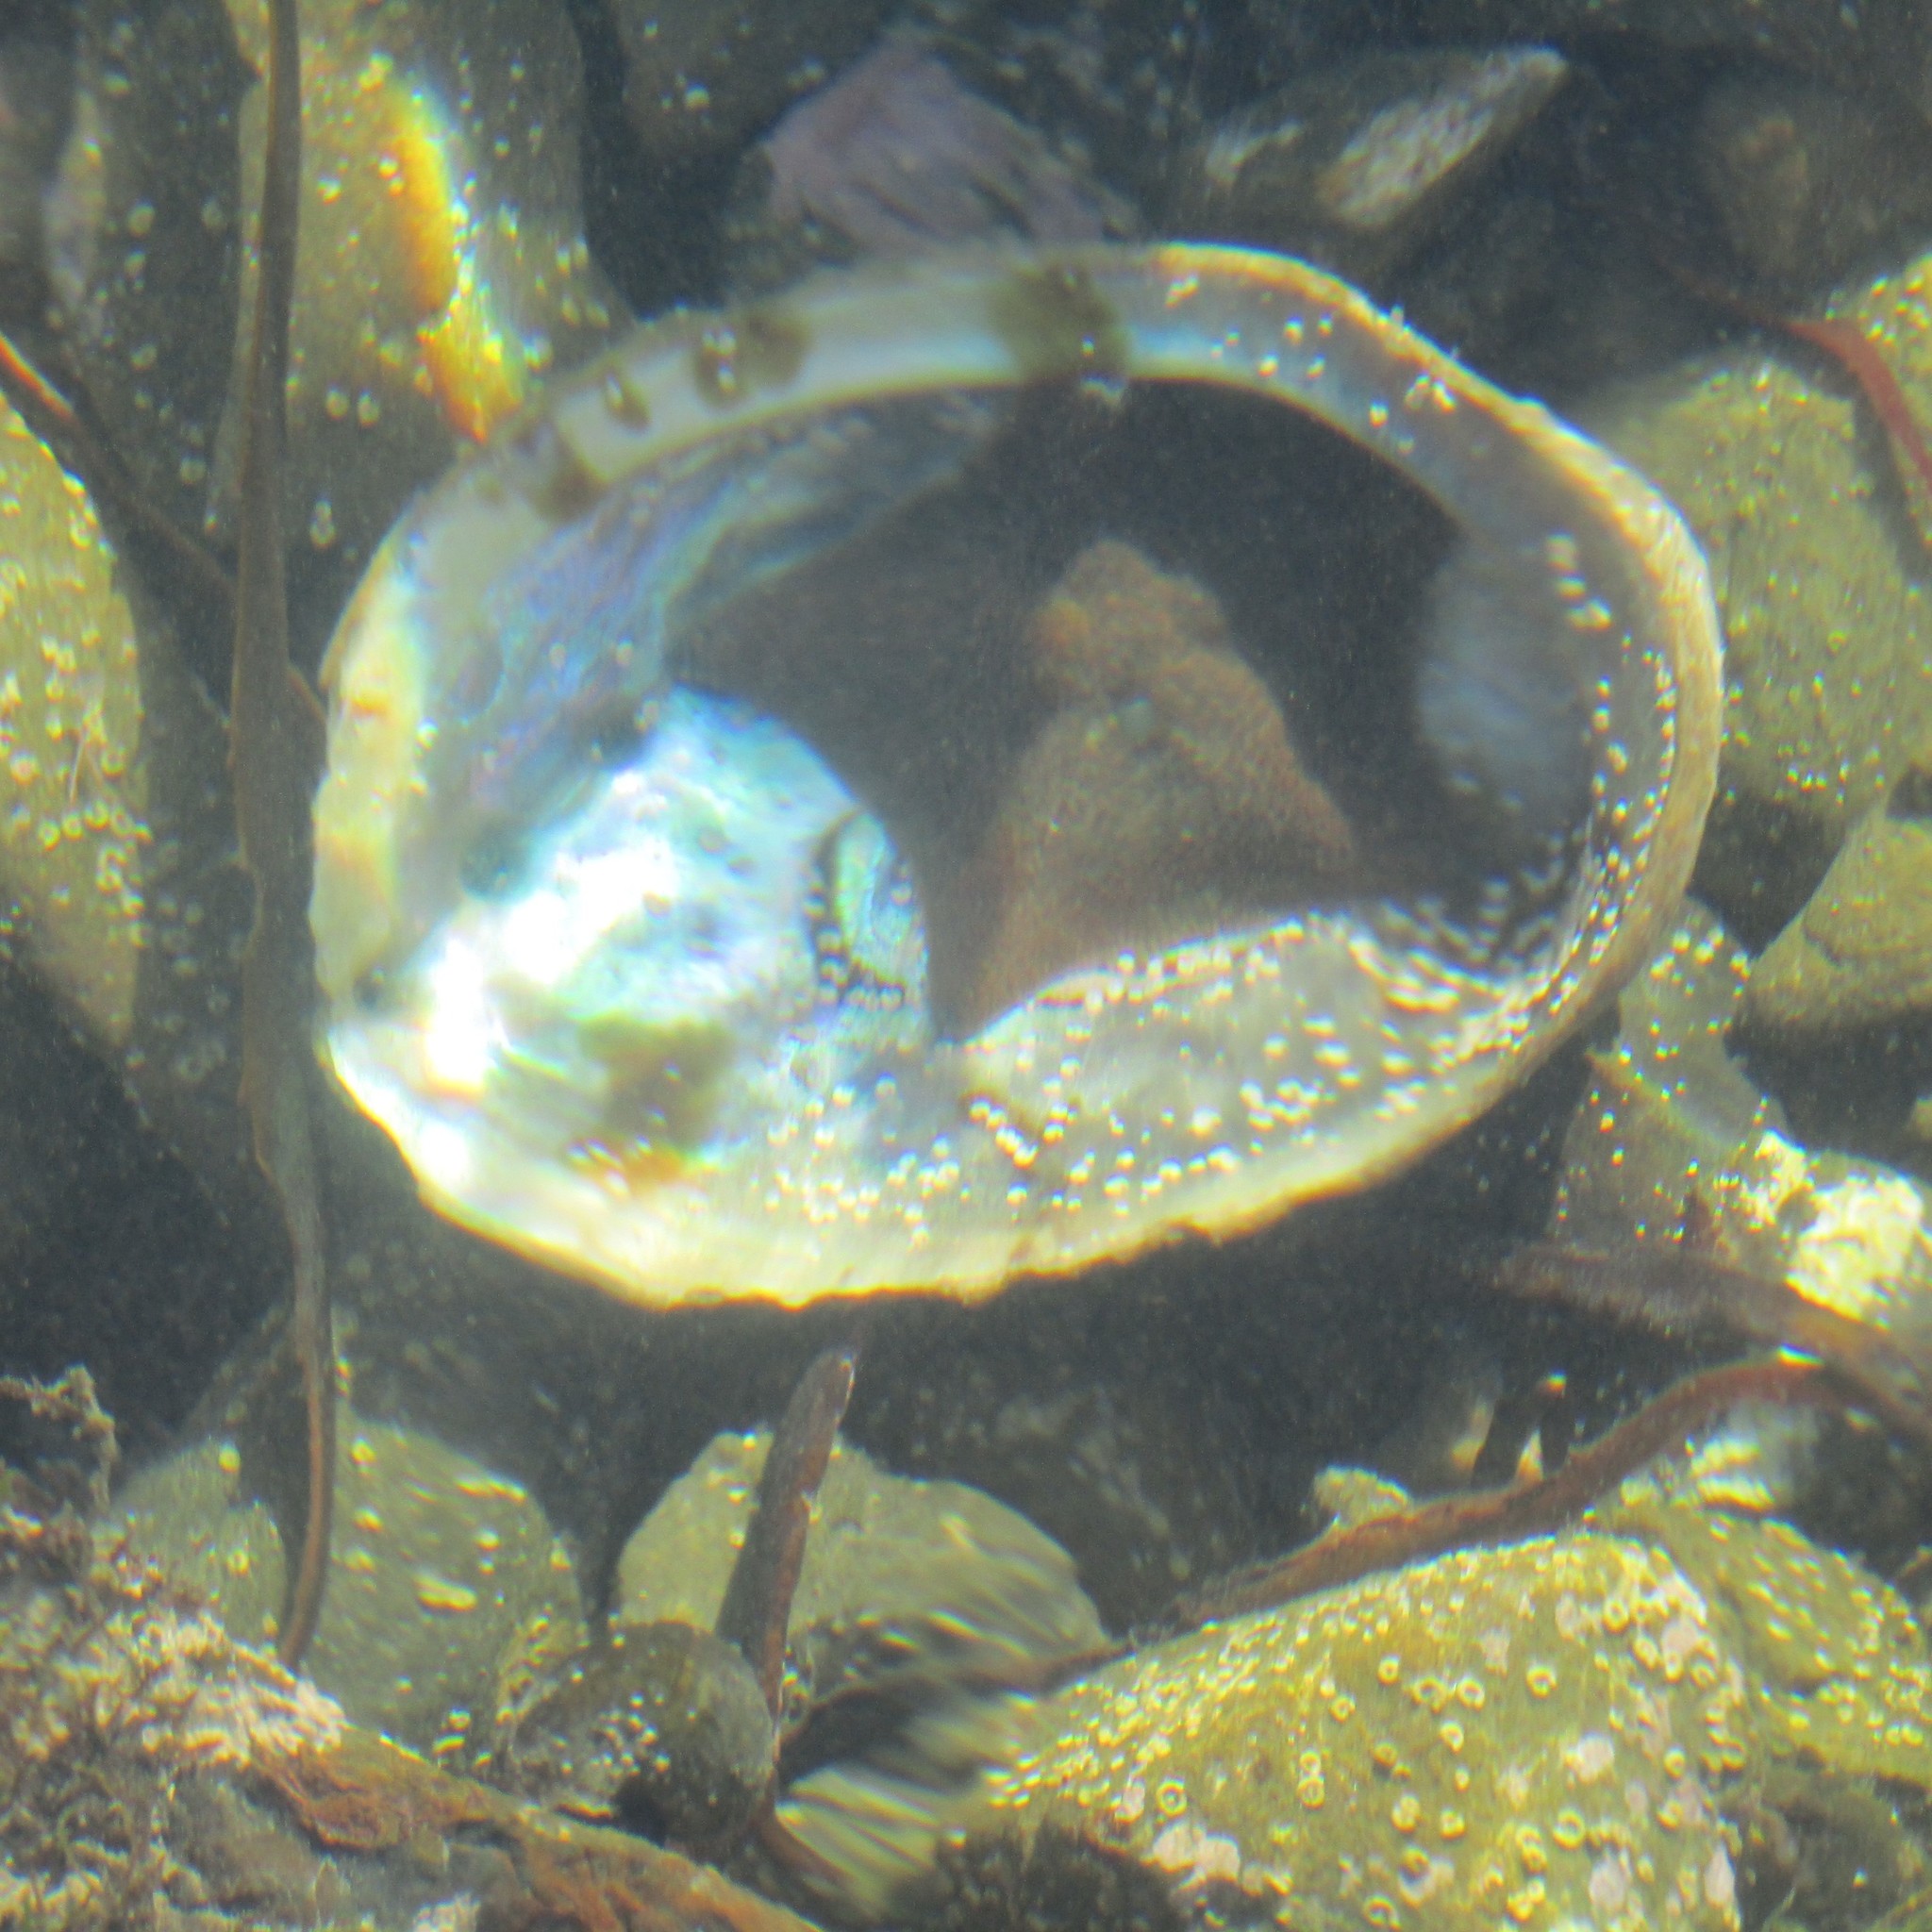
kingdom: Animalia
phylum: Mollusca
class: Gastropoda
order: Lepetellida
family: Haliotidae
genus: Haliotis
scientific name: Haliotis iris
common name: Abalone
